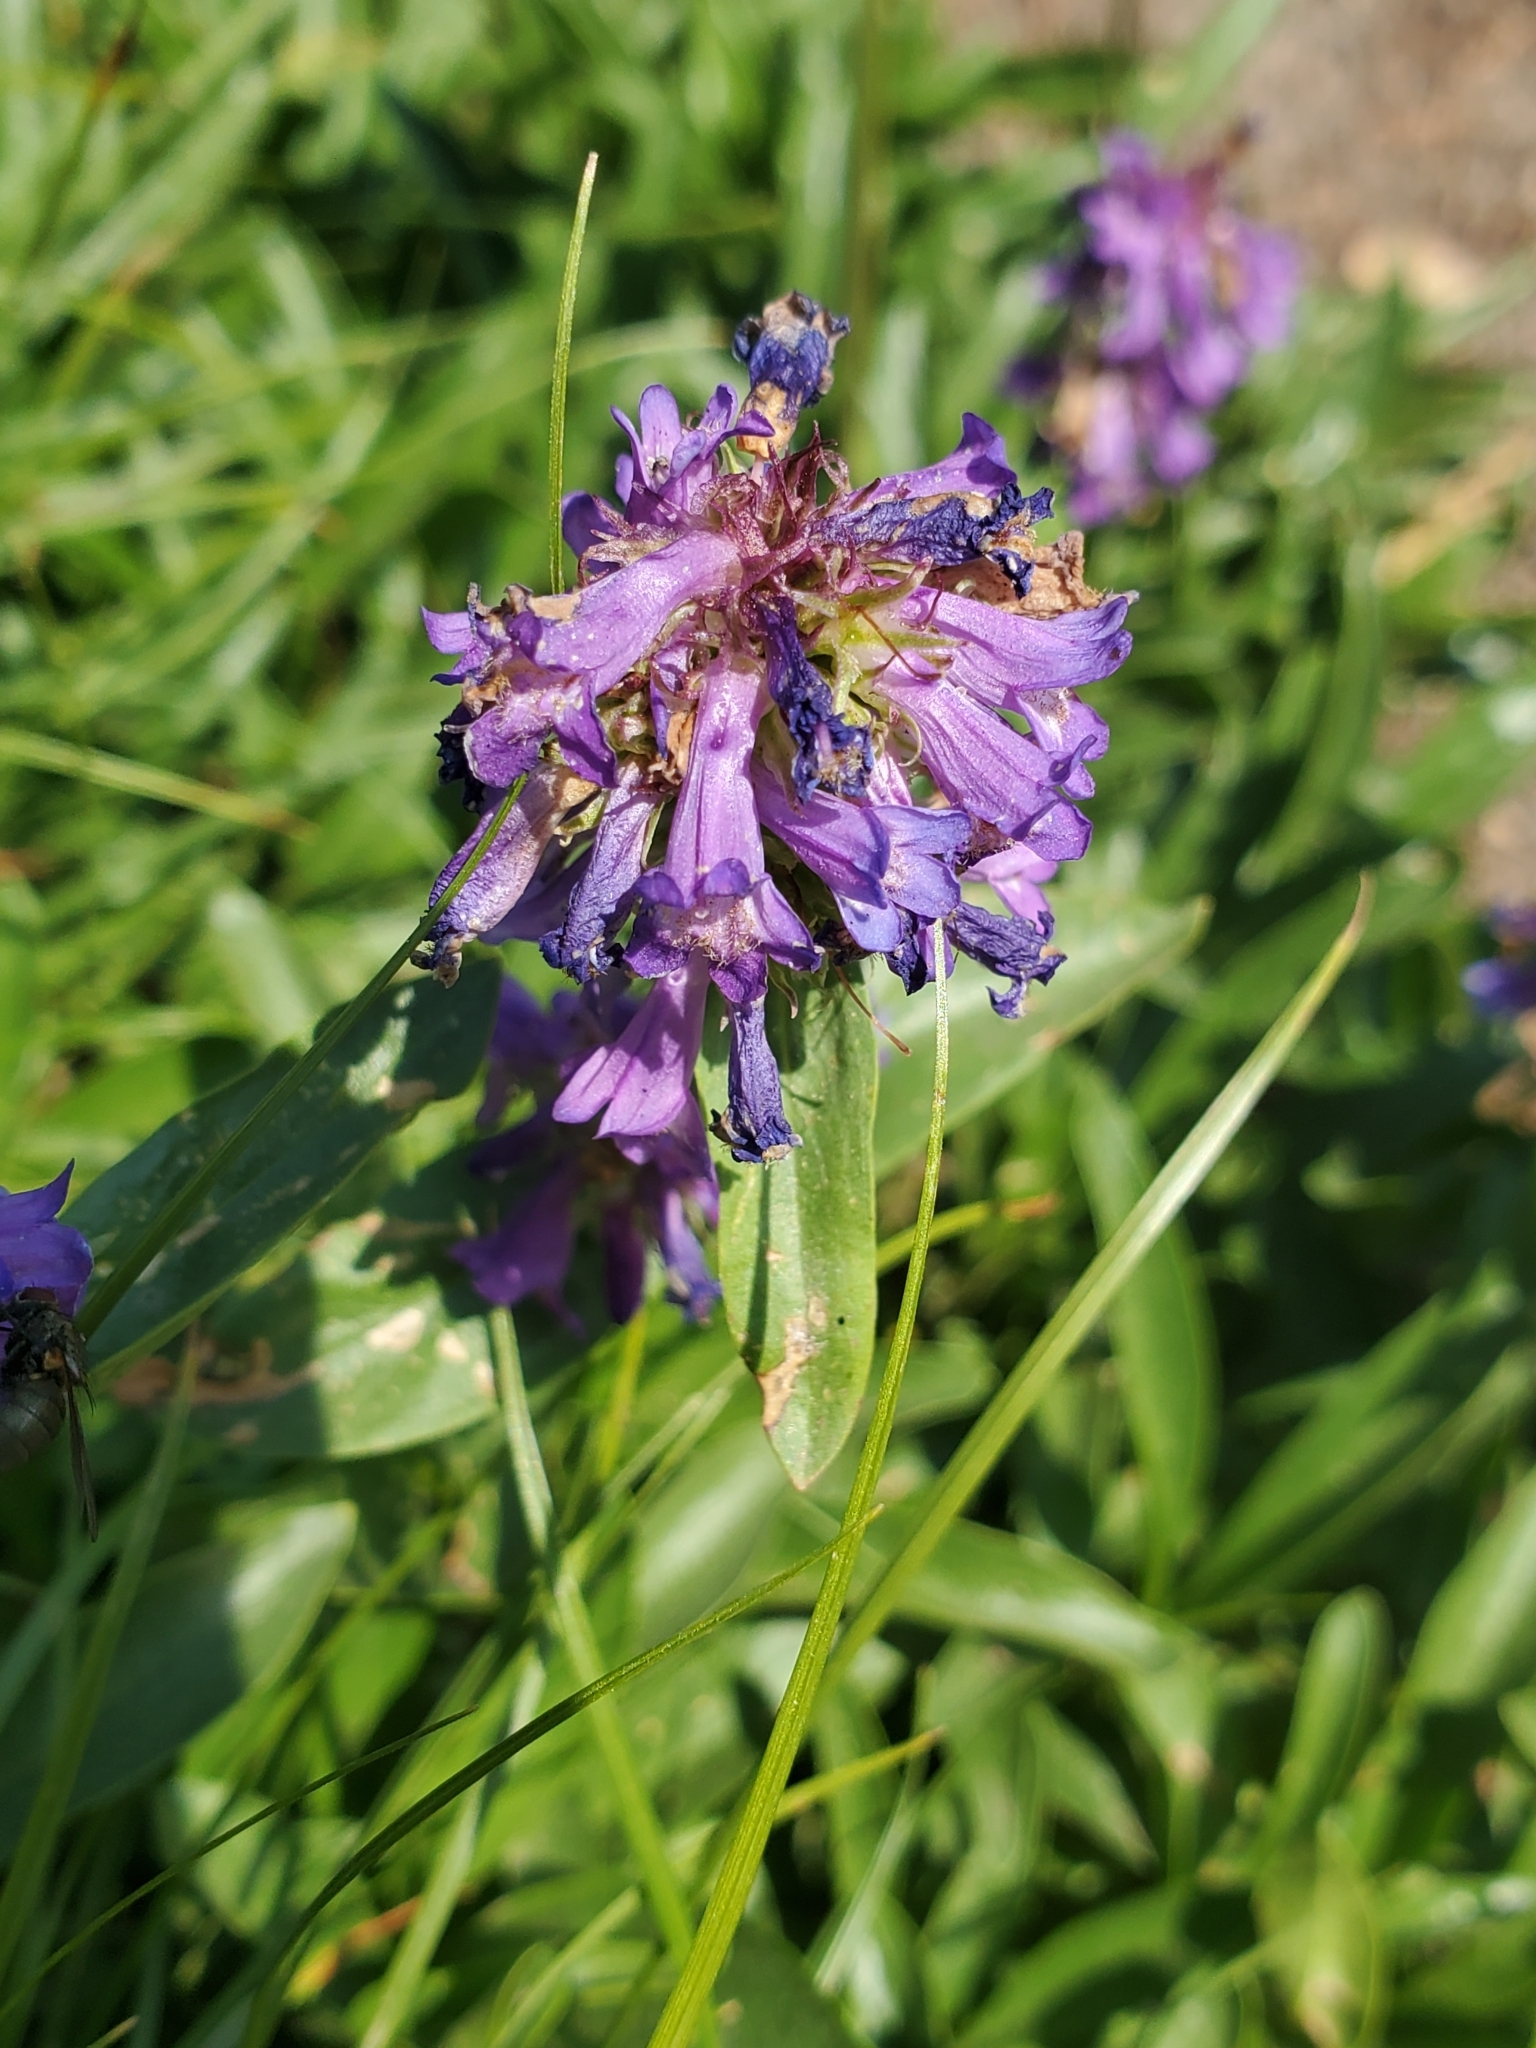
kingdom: Plantae
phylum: Tracheophyta
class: Magnoliopsida
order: Lamiales
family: Plantaginaceae
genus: Penstemon
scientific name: Penstemon procerus
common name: Small-flower penstemon
